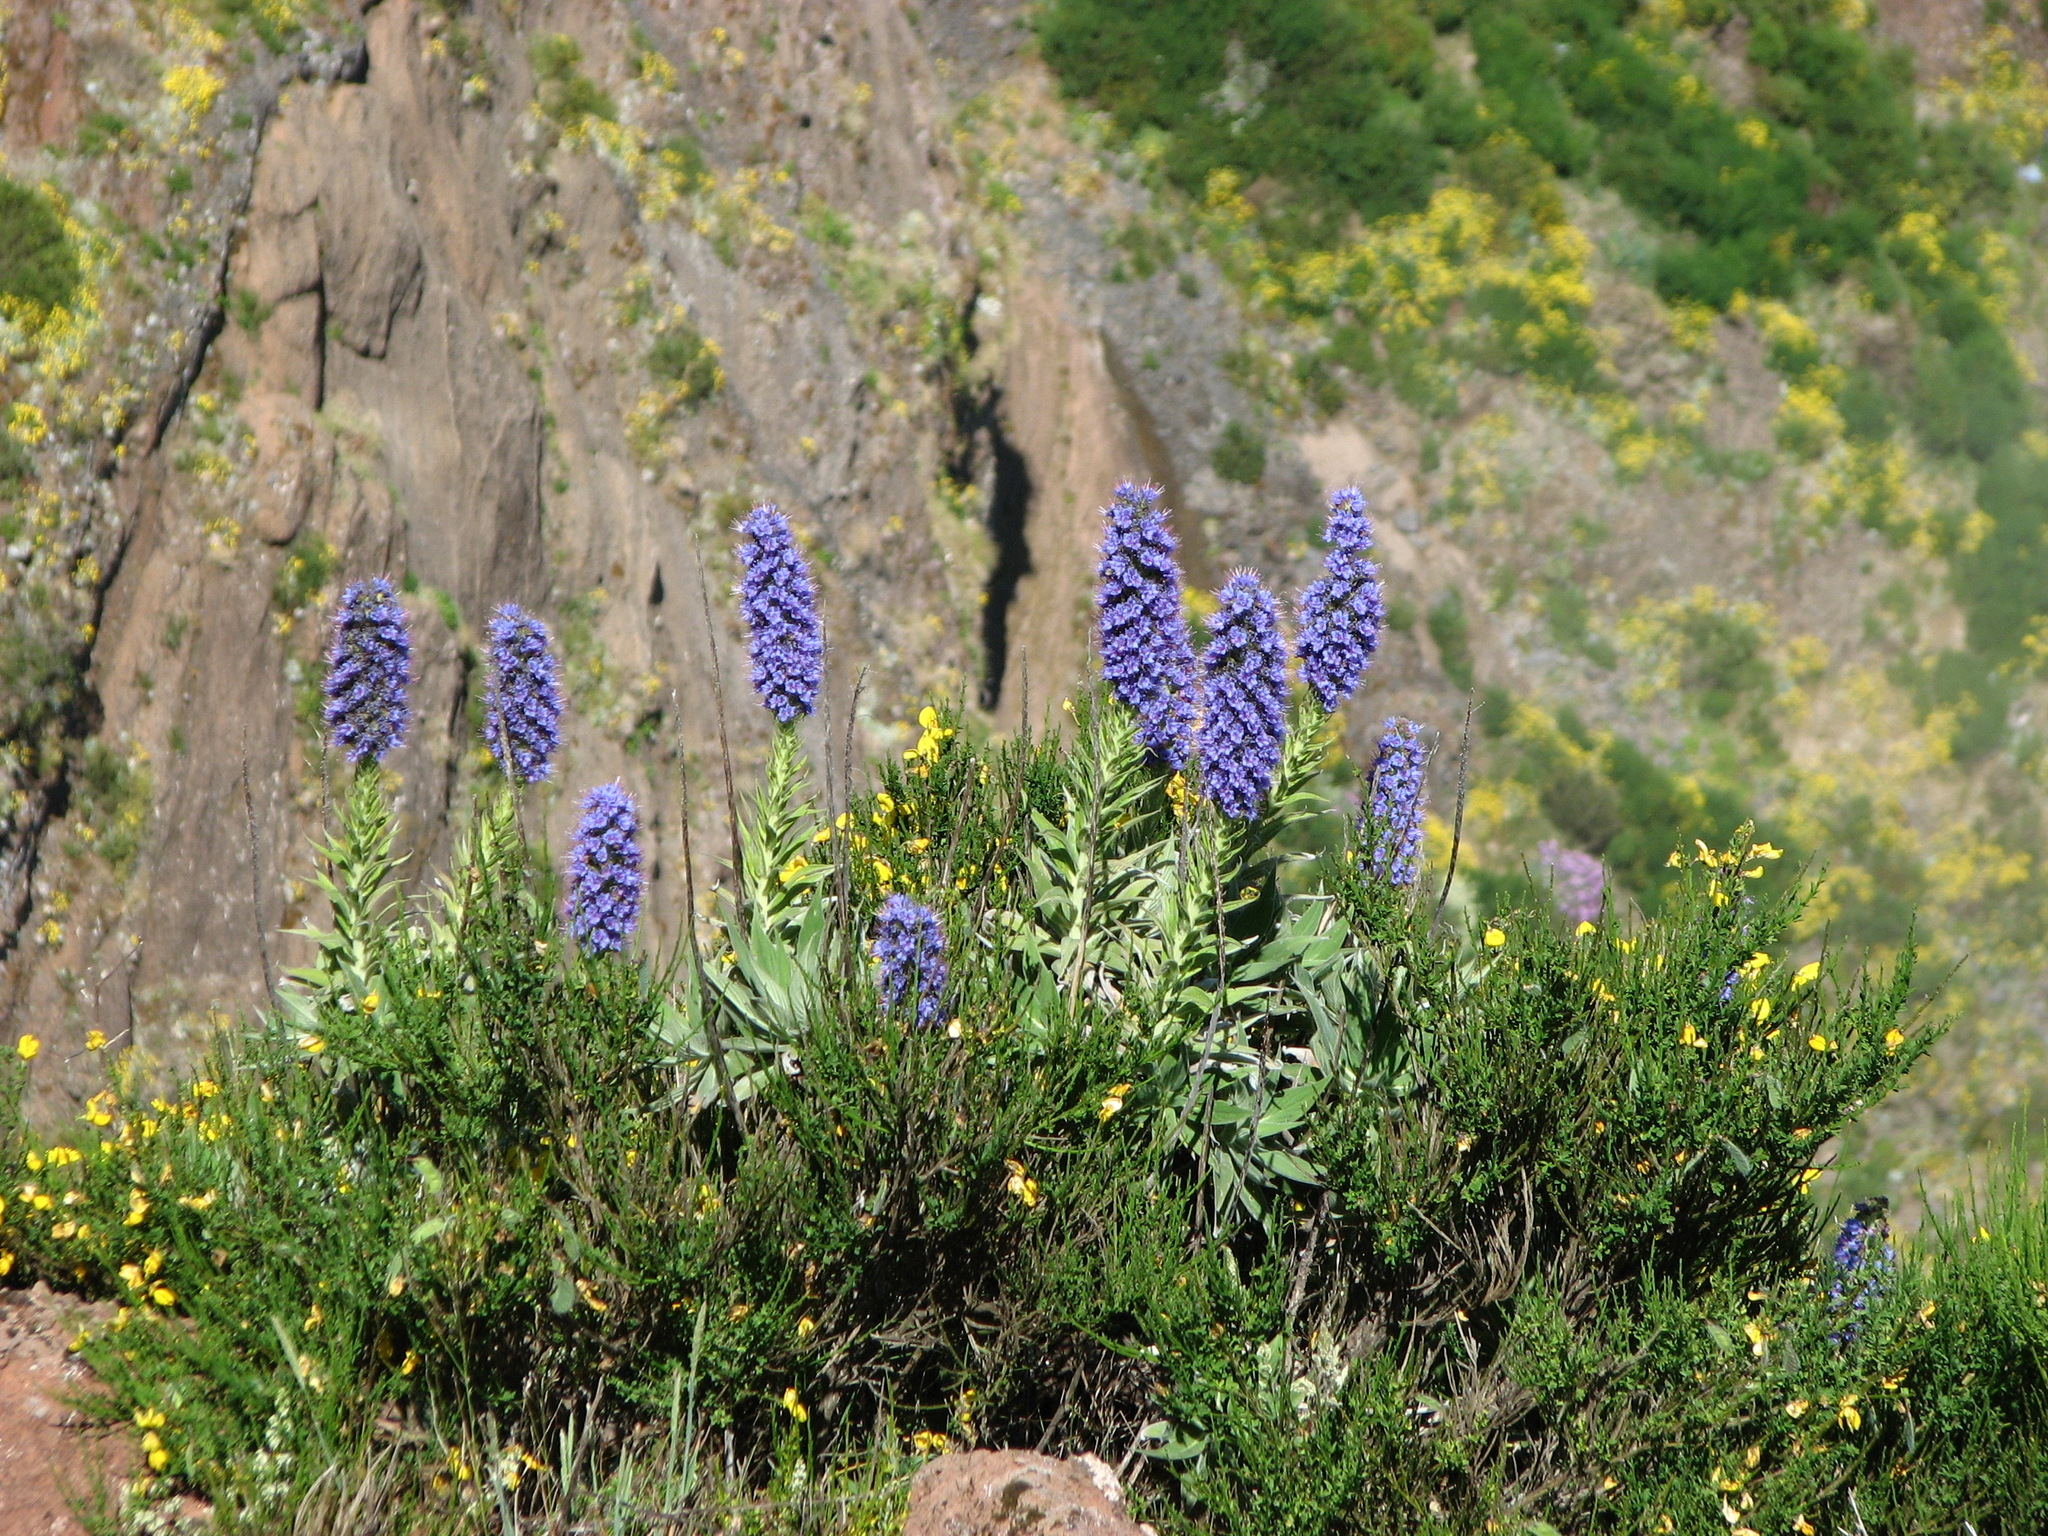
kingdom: Plantae
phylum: Tracheophyta
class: Magnoliopsida
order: Boraginales
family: Boraginaceae
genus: Echium
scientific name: Echium candicans
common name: Pride of madeira
